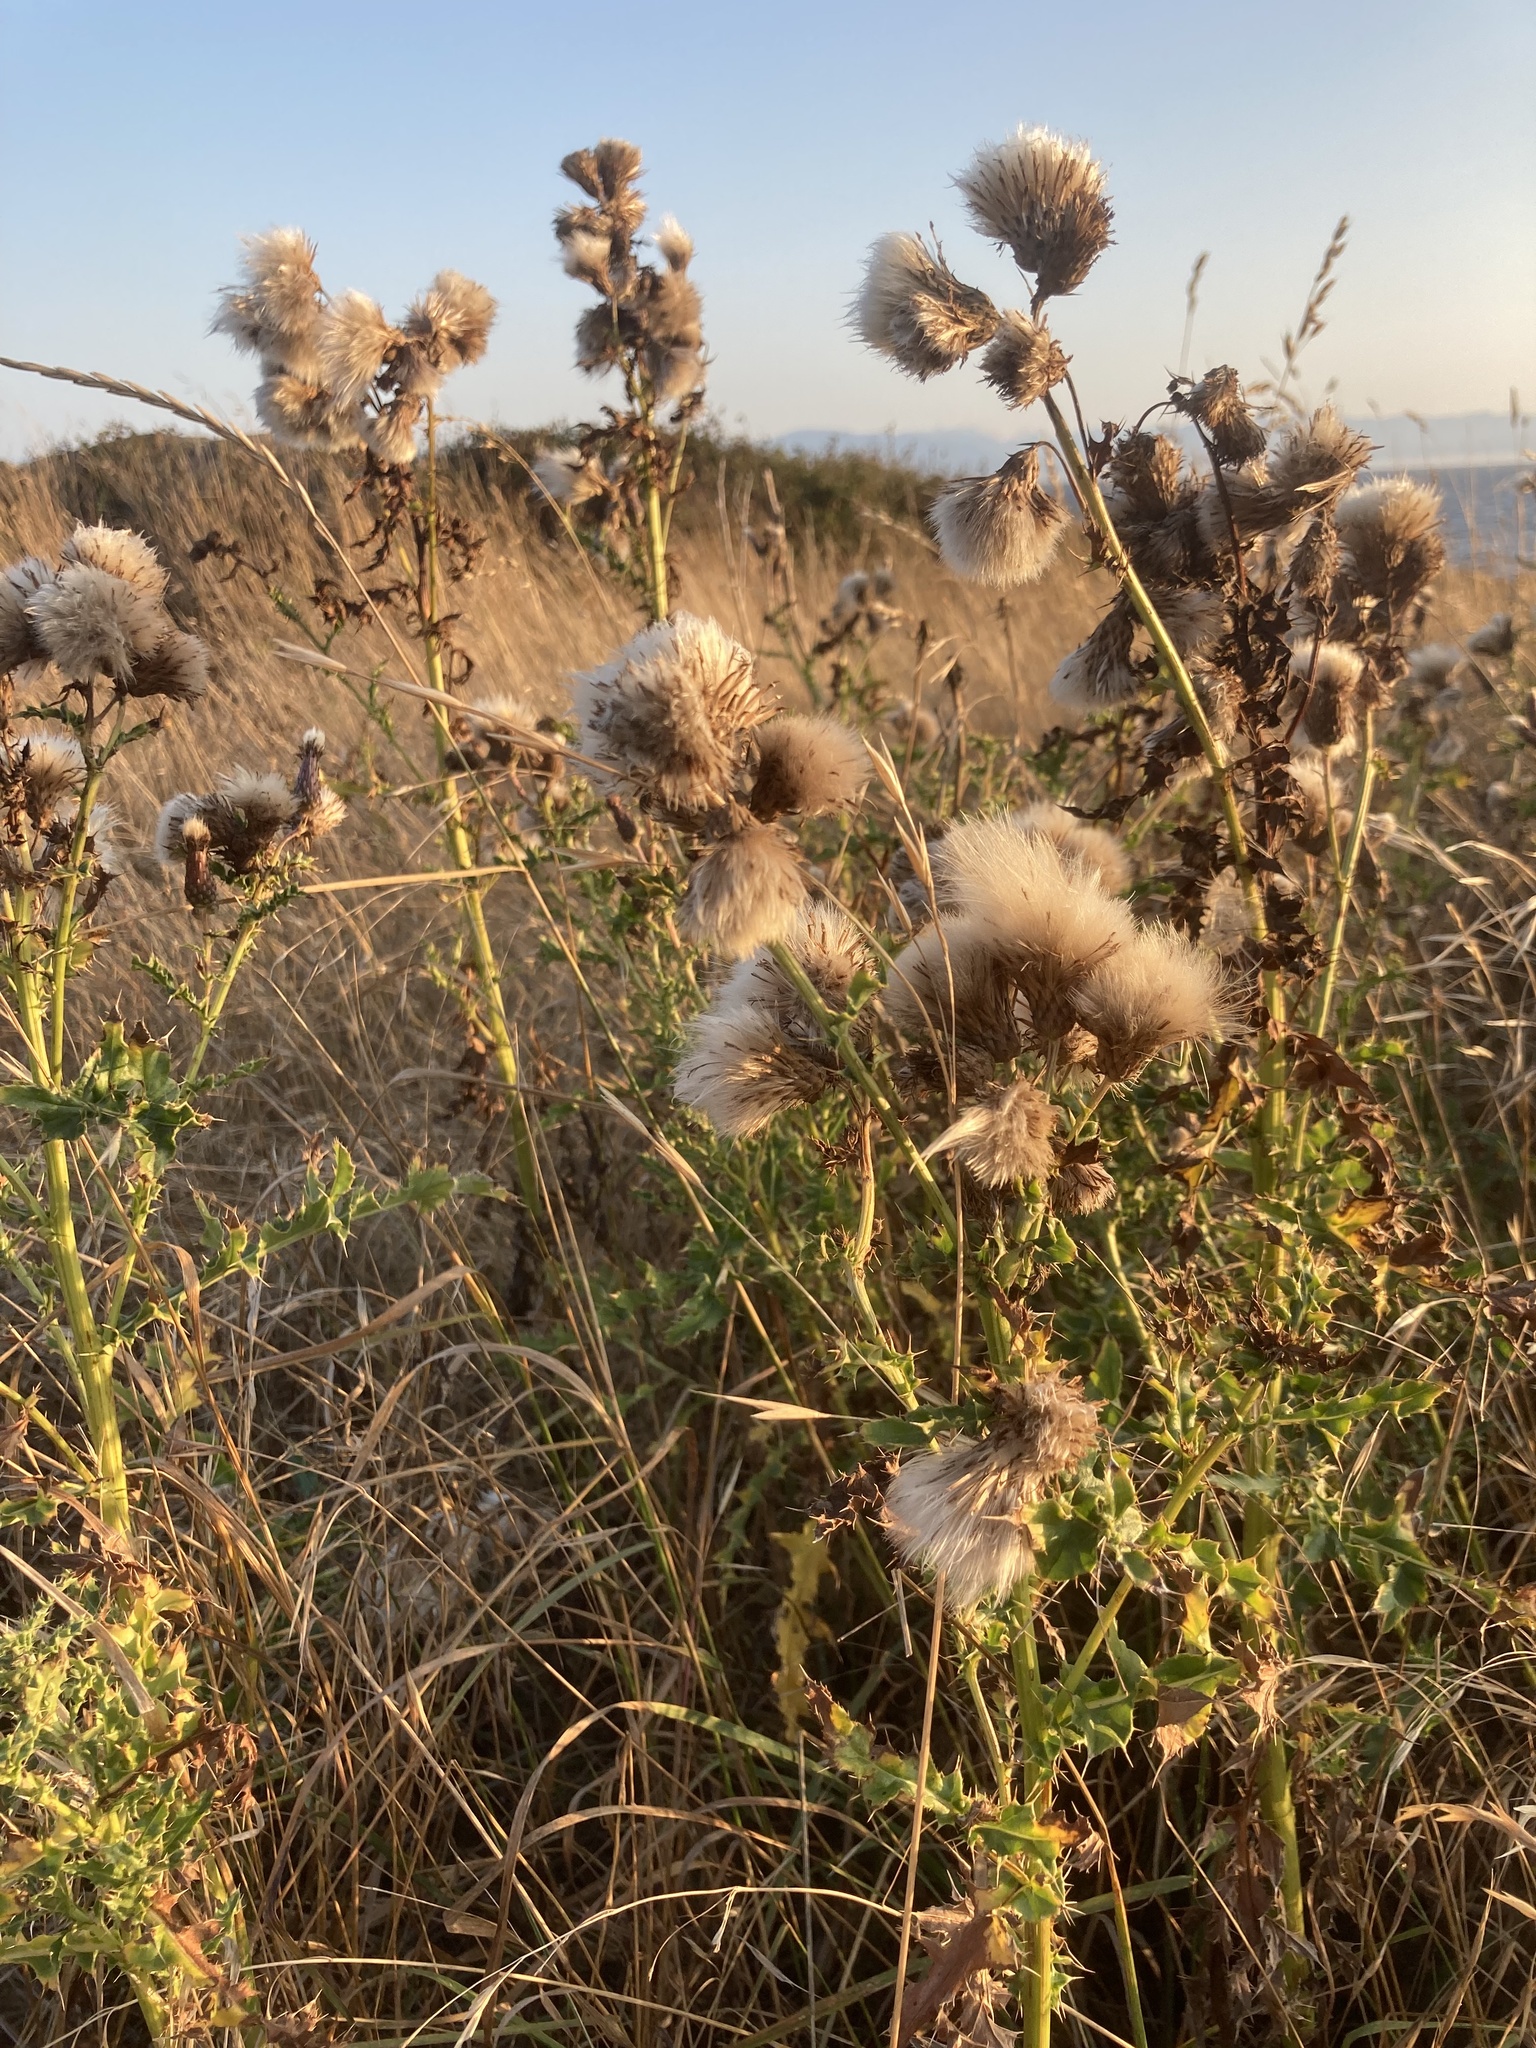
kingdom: Plantae
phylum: Tracheophyta
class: Magnoliopsida
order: Asterales
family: Asteraceae
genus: Cirsium
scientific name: Cirsium vulgare
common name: Bull thistle
